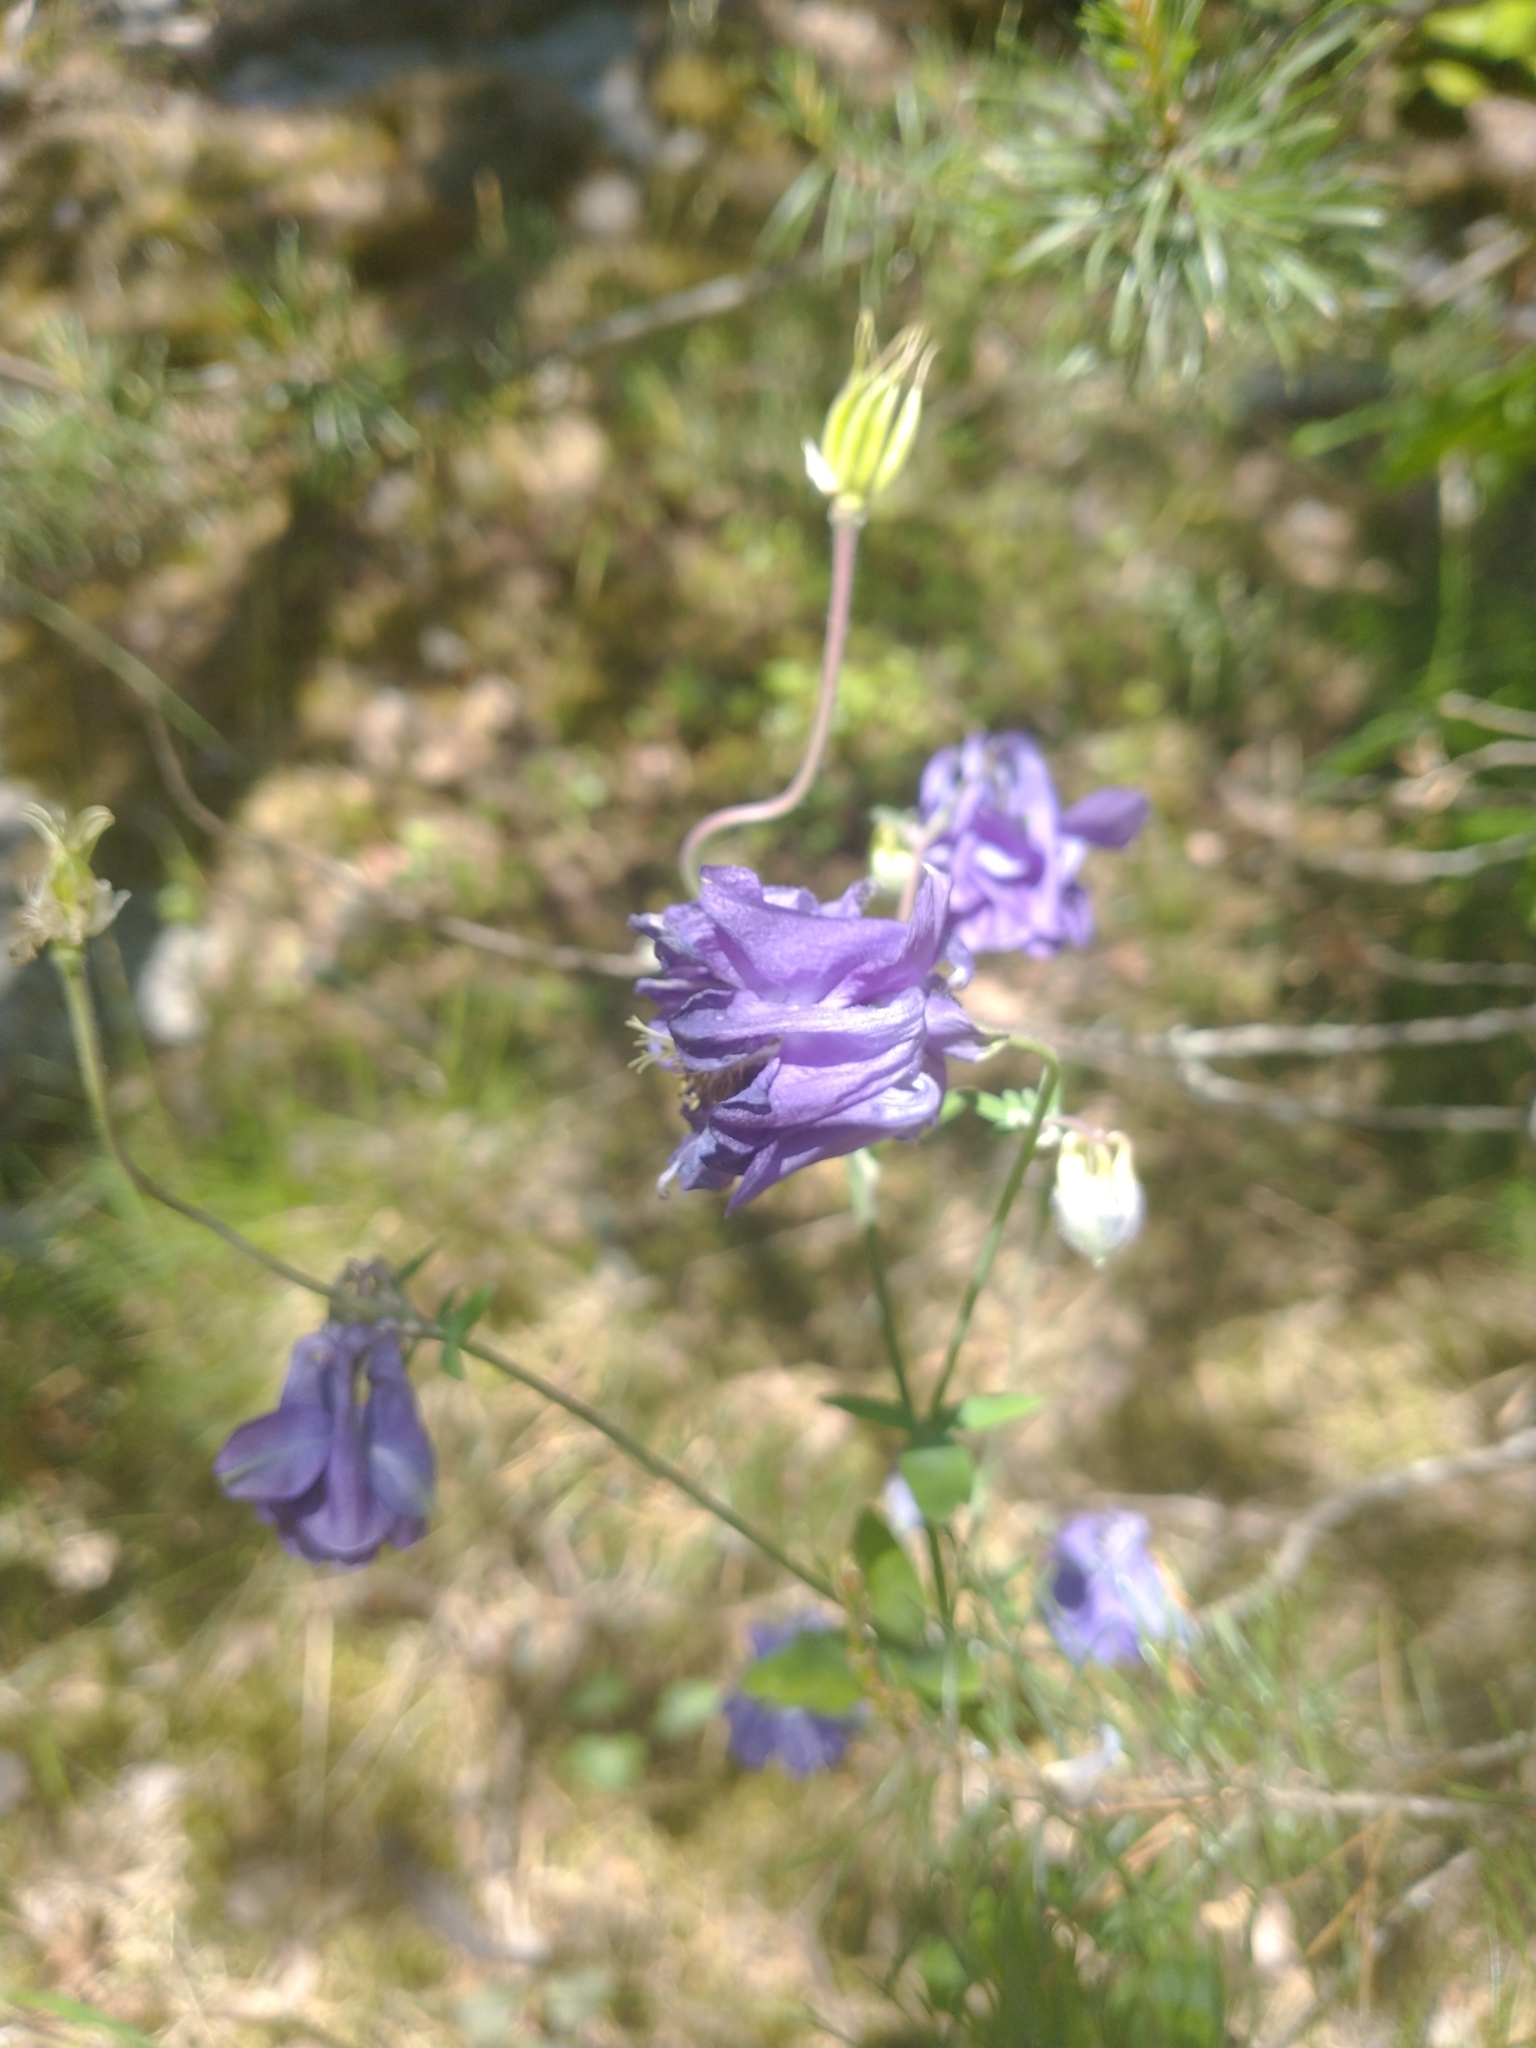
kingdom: Plantae
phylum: Tracheophyta
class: Magnoliopsida
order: Ranunculales
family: Ranunculaceae
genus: Aquilegia
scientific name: Aquilegia vulgaris
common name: Columbine
